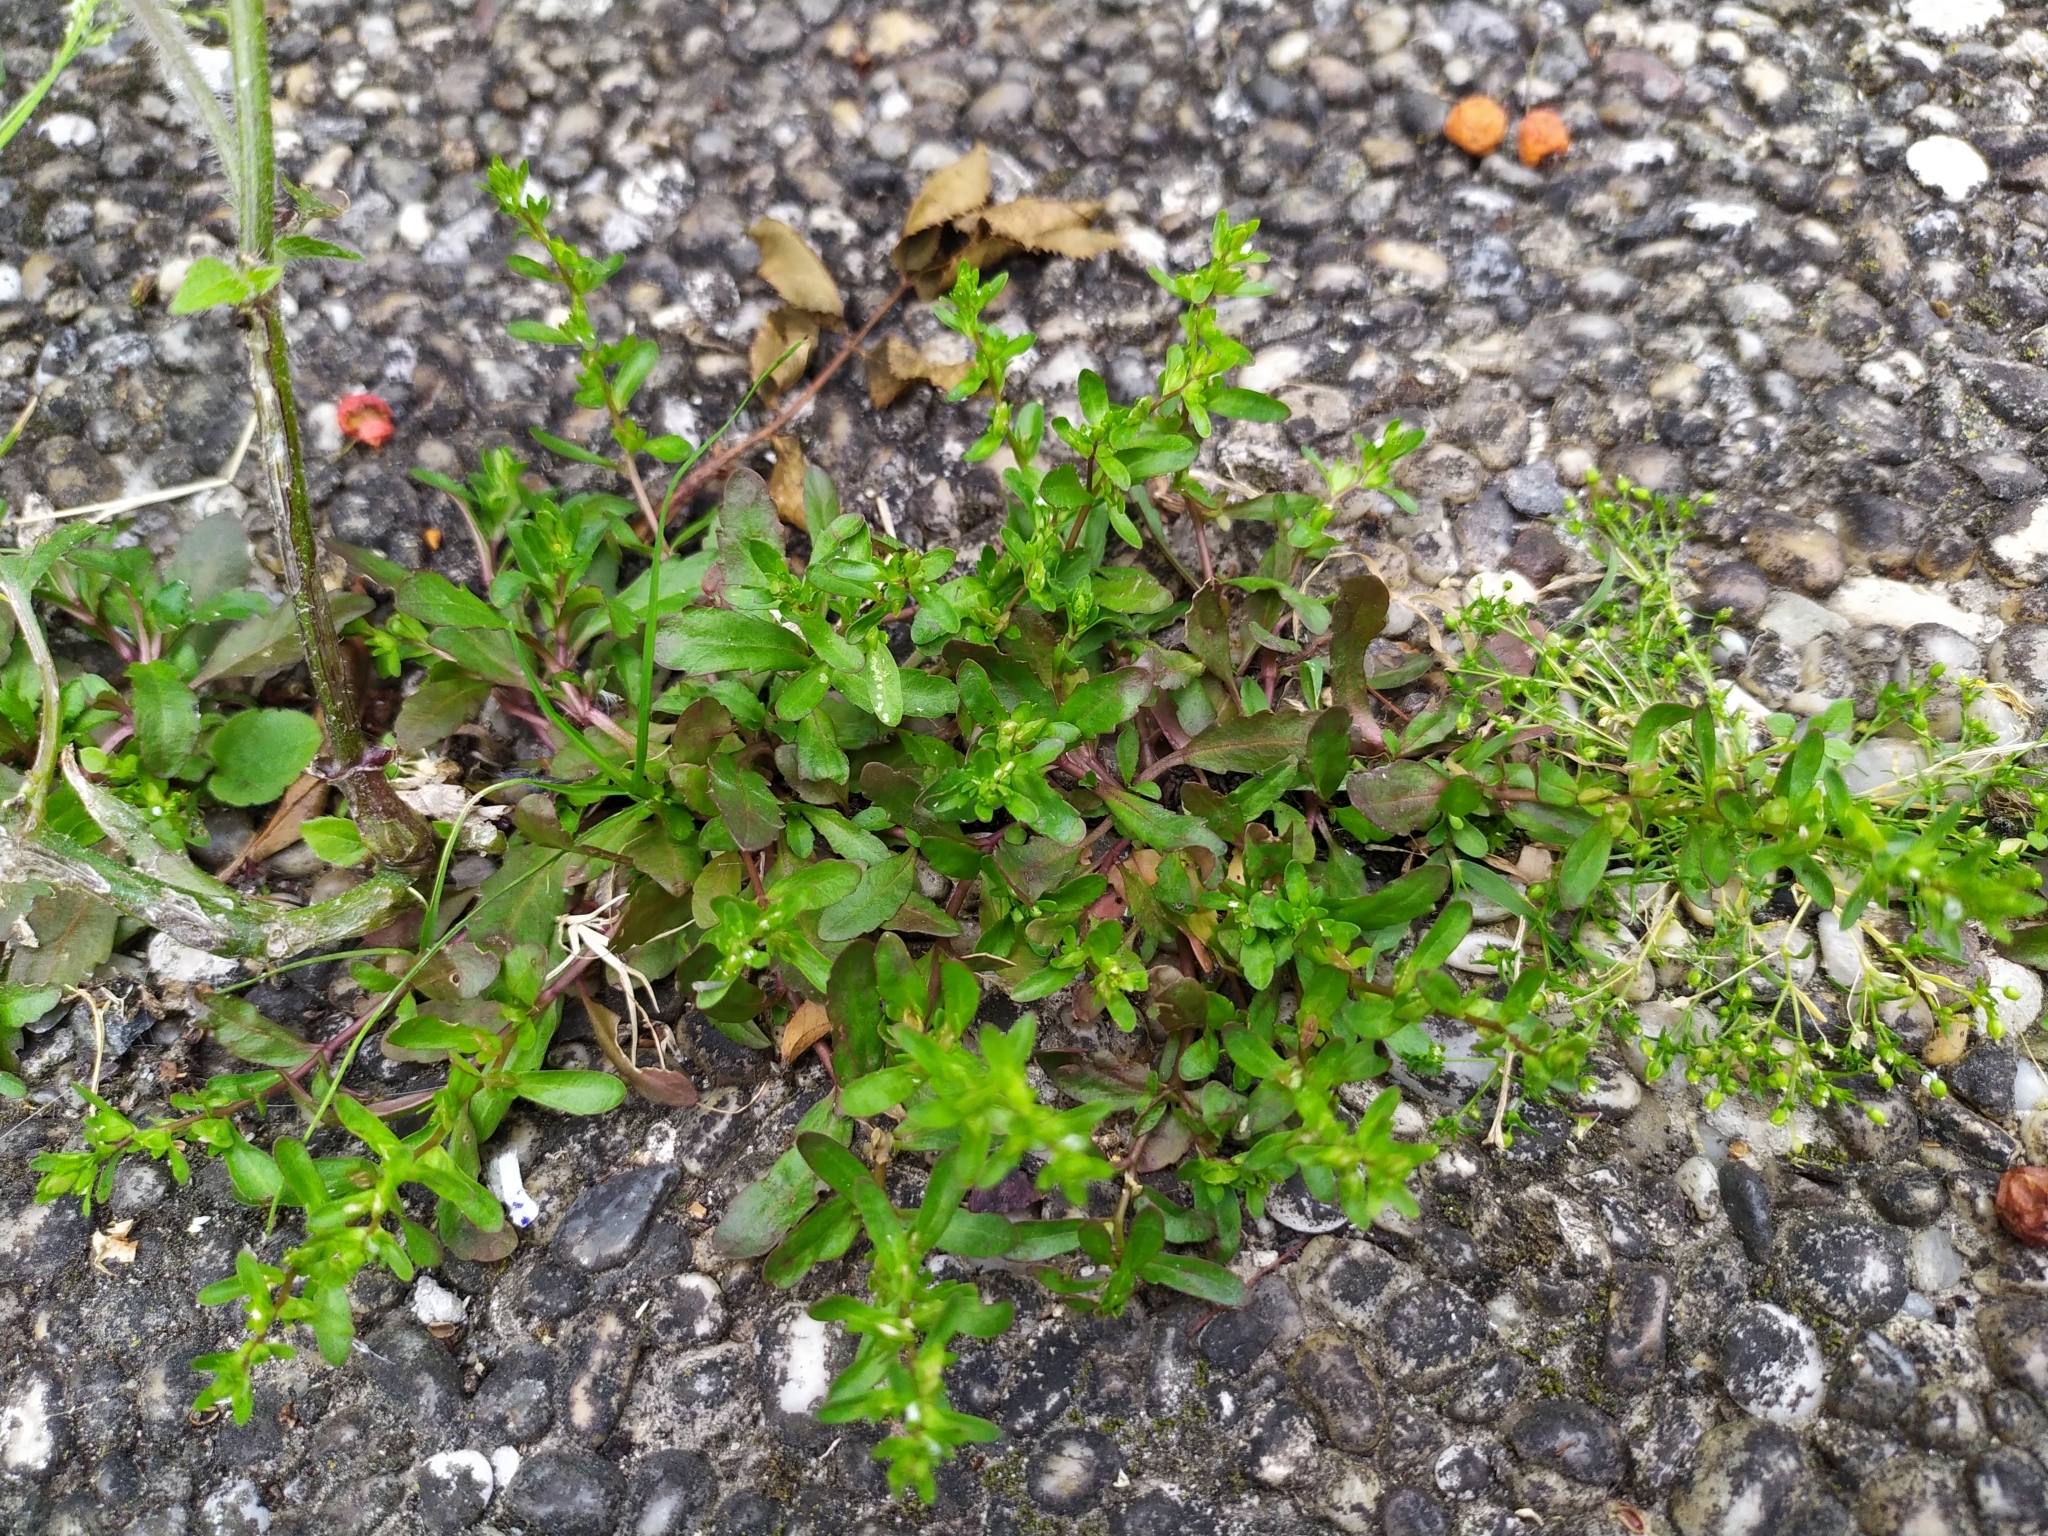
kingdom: Plantae
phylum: Tracheophyta
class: Magnoliopsida
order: Lamiales
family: Plantaginaceae
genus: Veronica
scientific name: Veronica peregrina
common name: Neckweed
